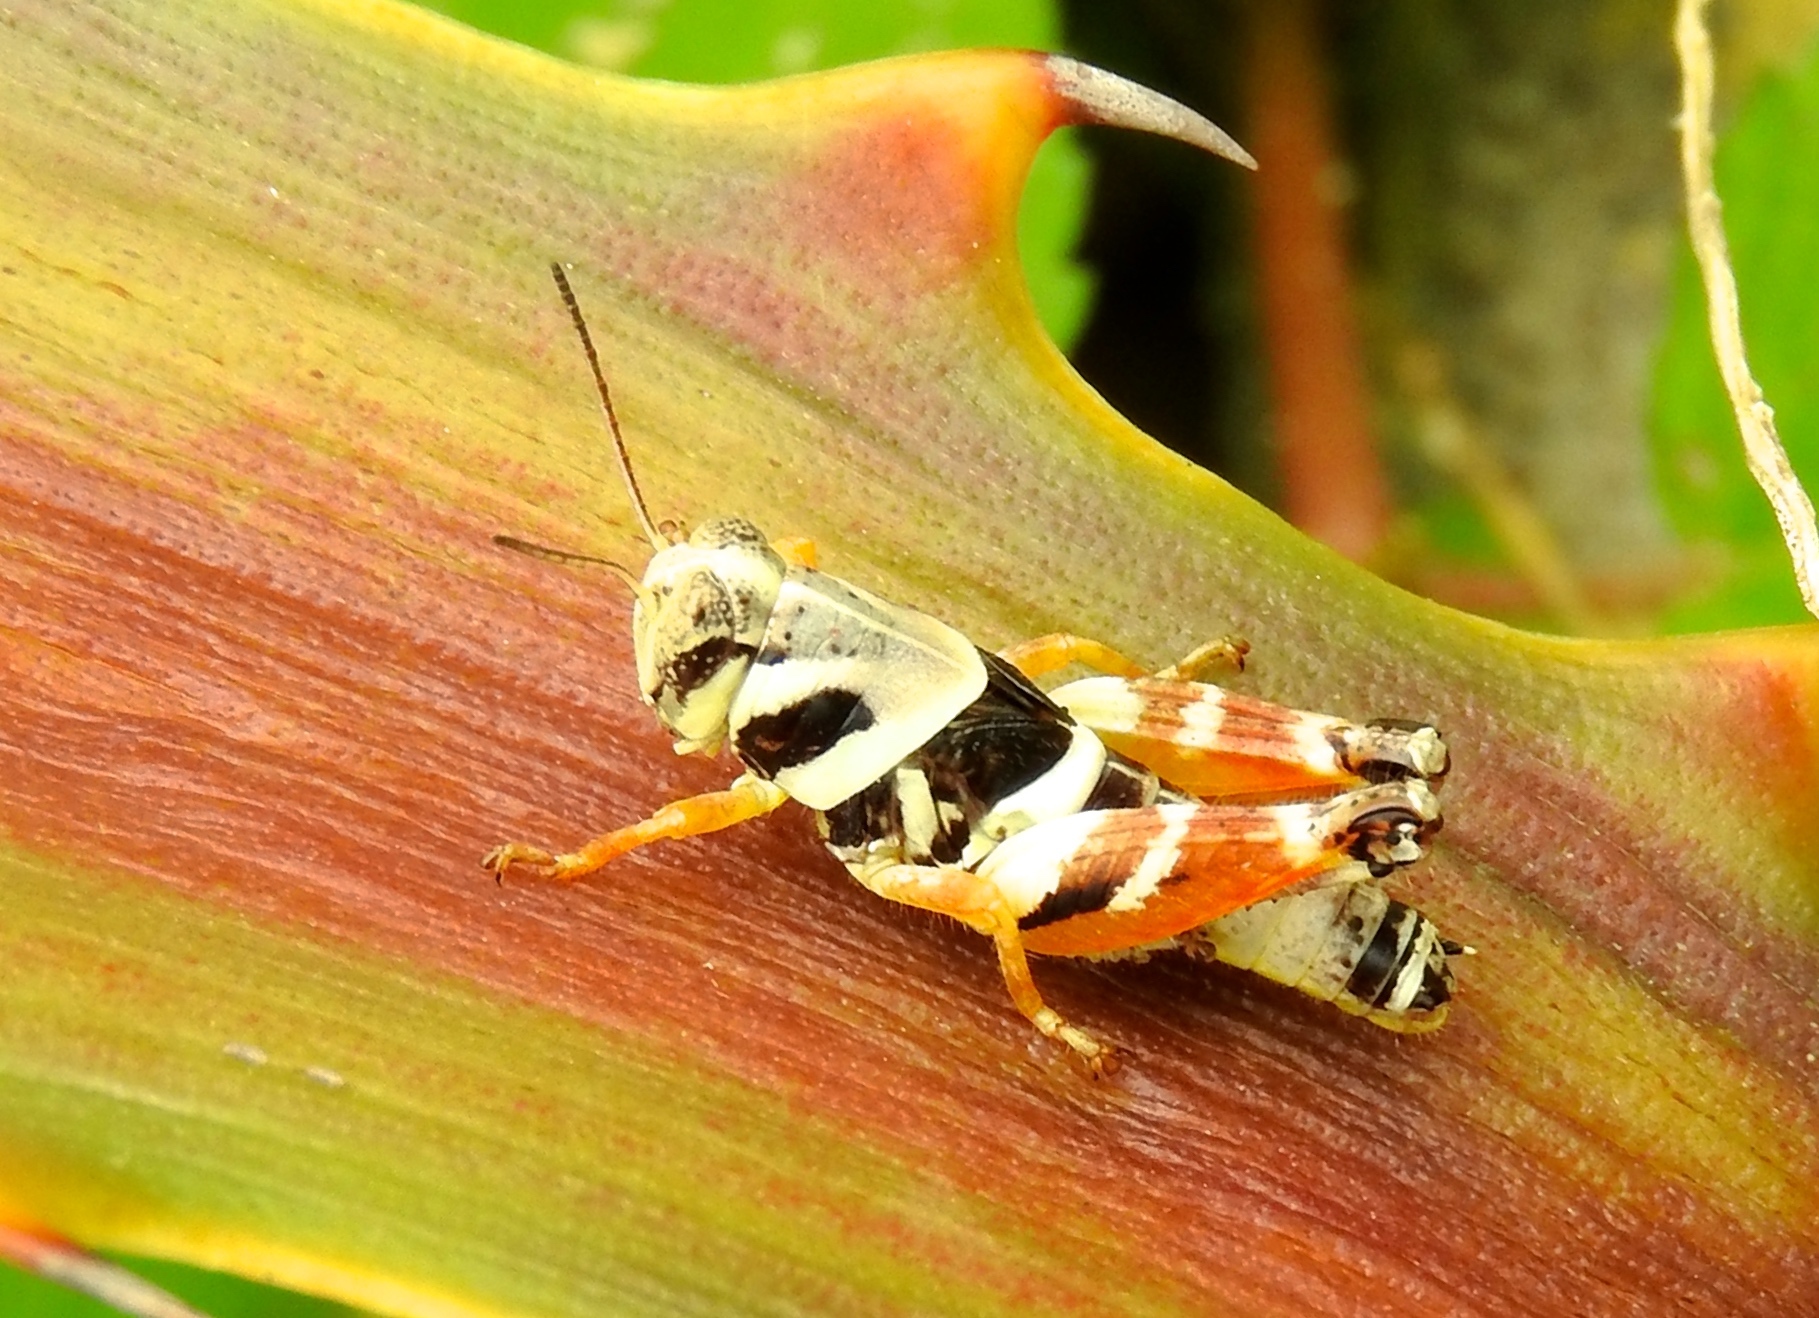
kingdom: Animalia
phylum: Arthropoda
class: Insecta
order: Orthoptera
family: Acrididae
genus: Aidemona
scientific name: Aidemona azteca
